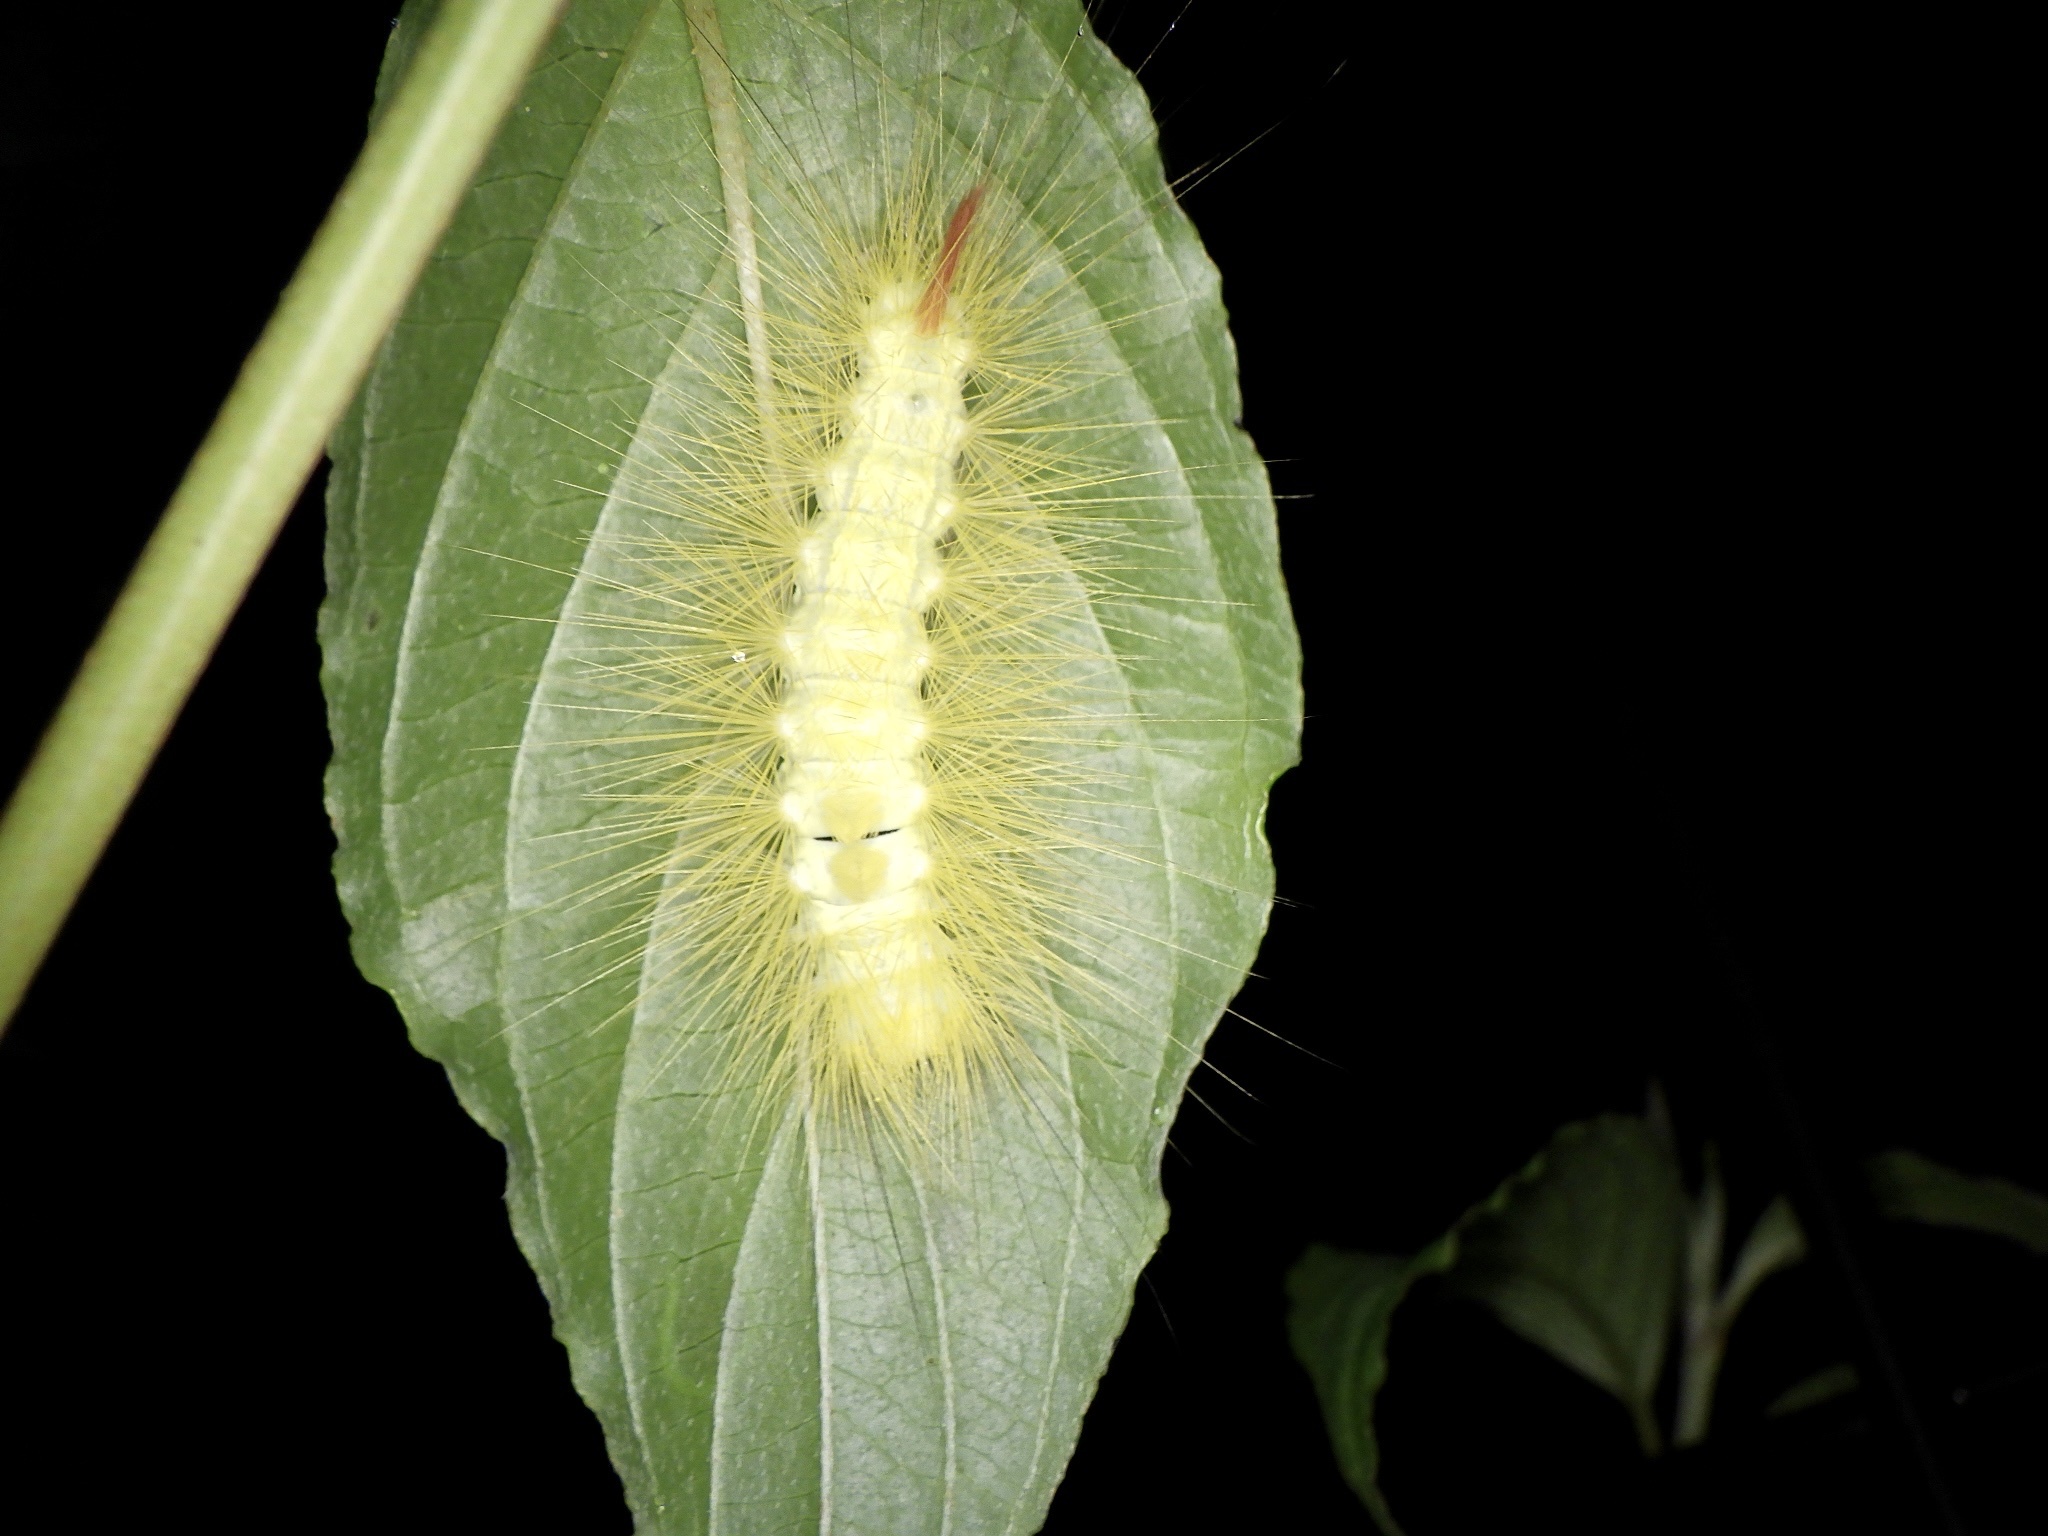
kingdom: Animalia
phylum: Arthropoda
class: Insecta
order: Lepidoptera
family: Erebidae
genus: Calliteara
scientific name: Calliteara
